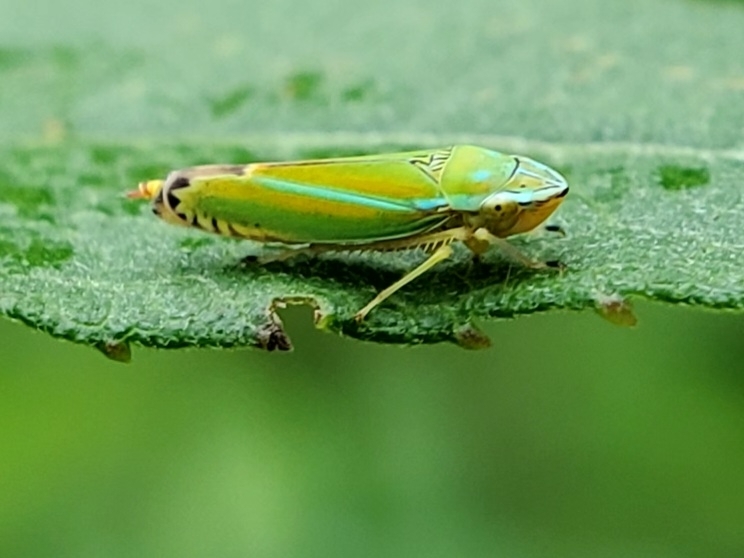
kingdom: Animalia
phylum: Arthropoda
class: Insecta
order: Hemiptera
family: Cicadellidae
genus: Graphocephala
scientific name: Graphocephala versuta
